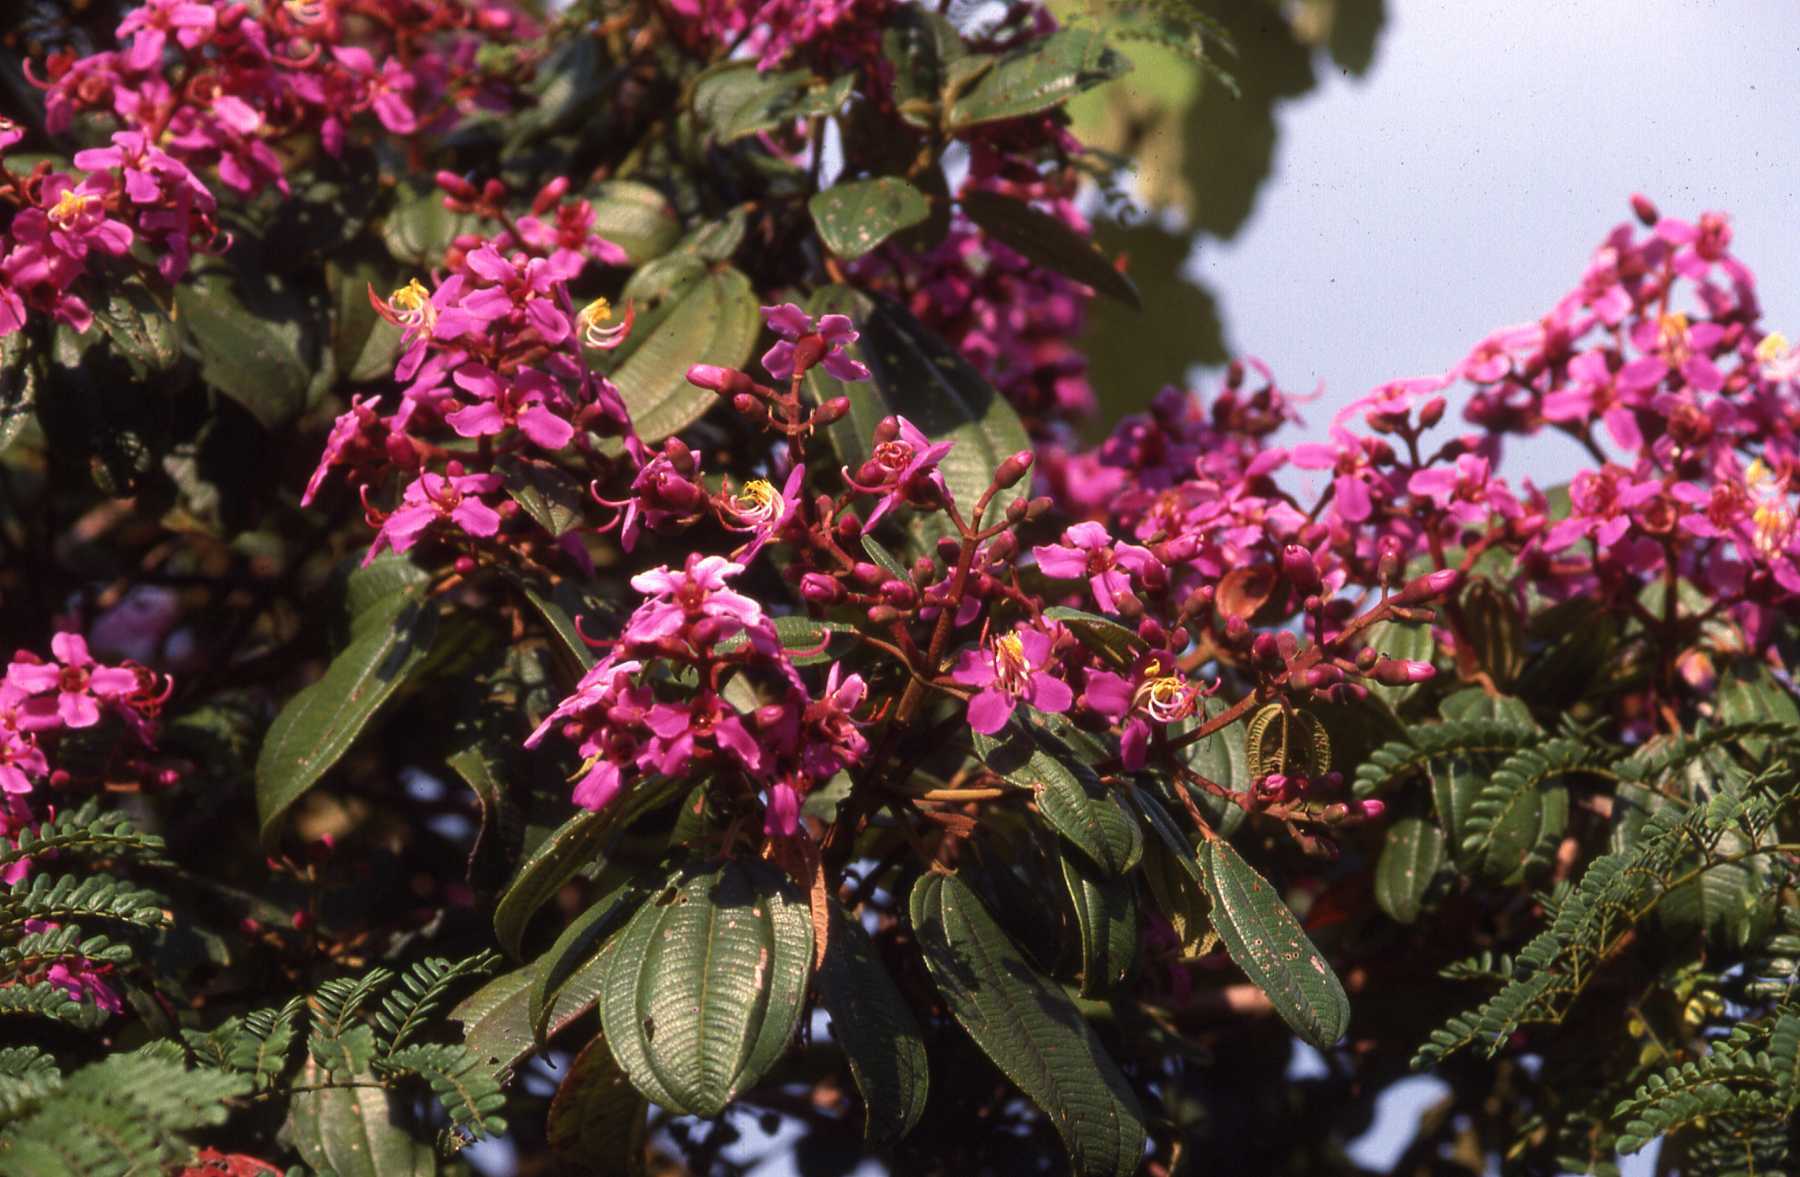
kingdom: Plantae
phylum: Tracheophyta
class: Magnoliopsida
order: Myrtales
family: Melastomataceae
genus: Dichaetanthera
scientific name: Dichaetanthera cordifolia
